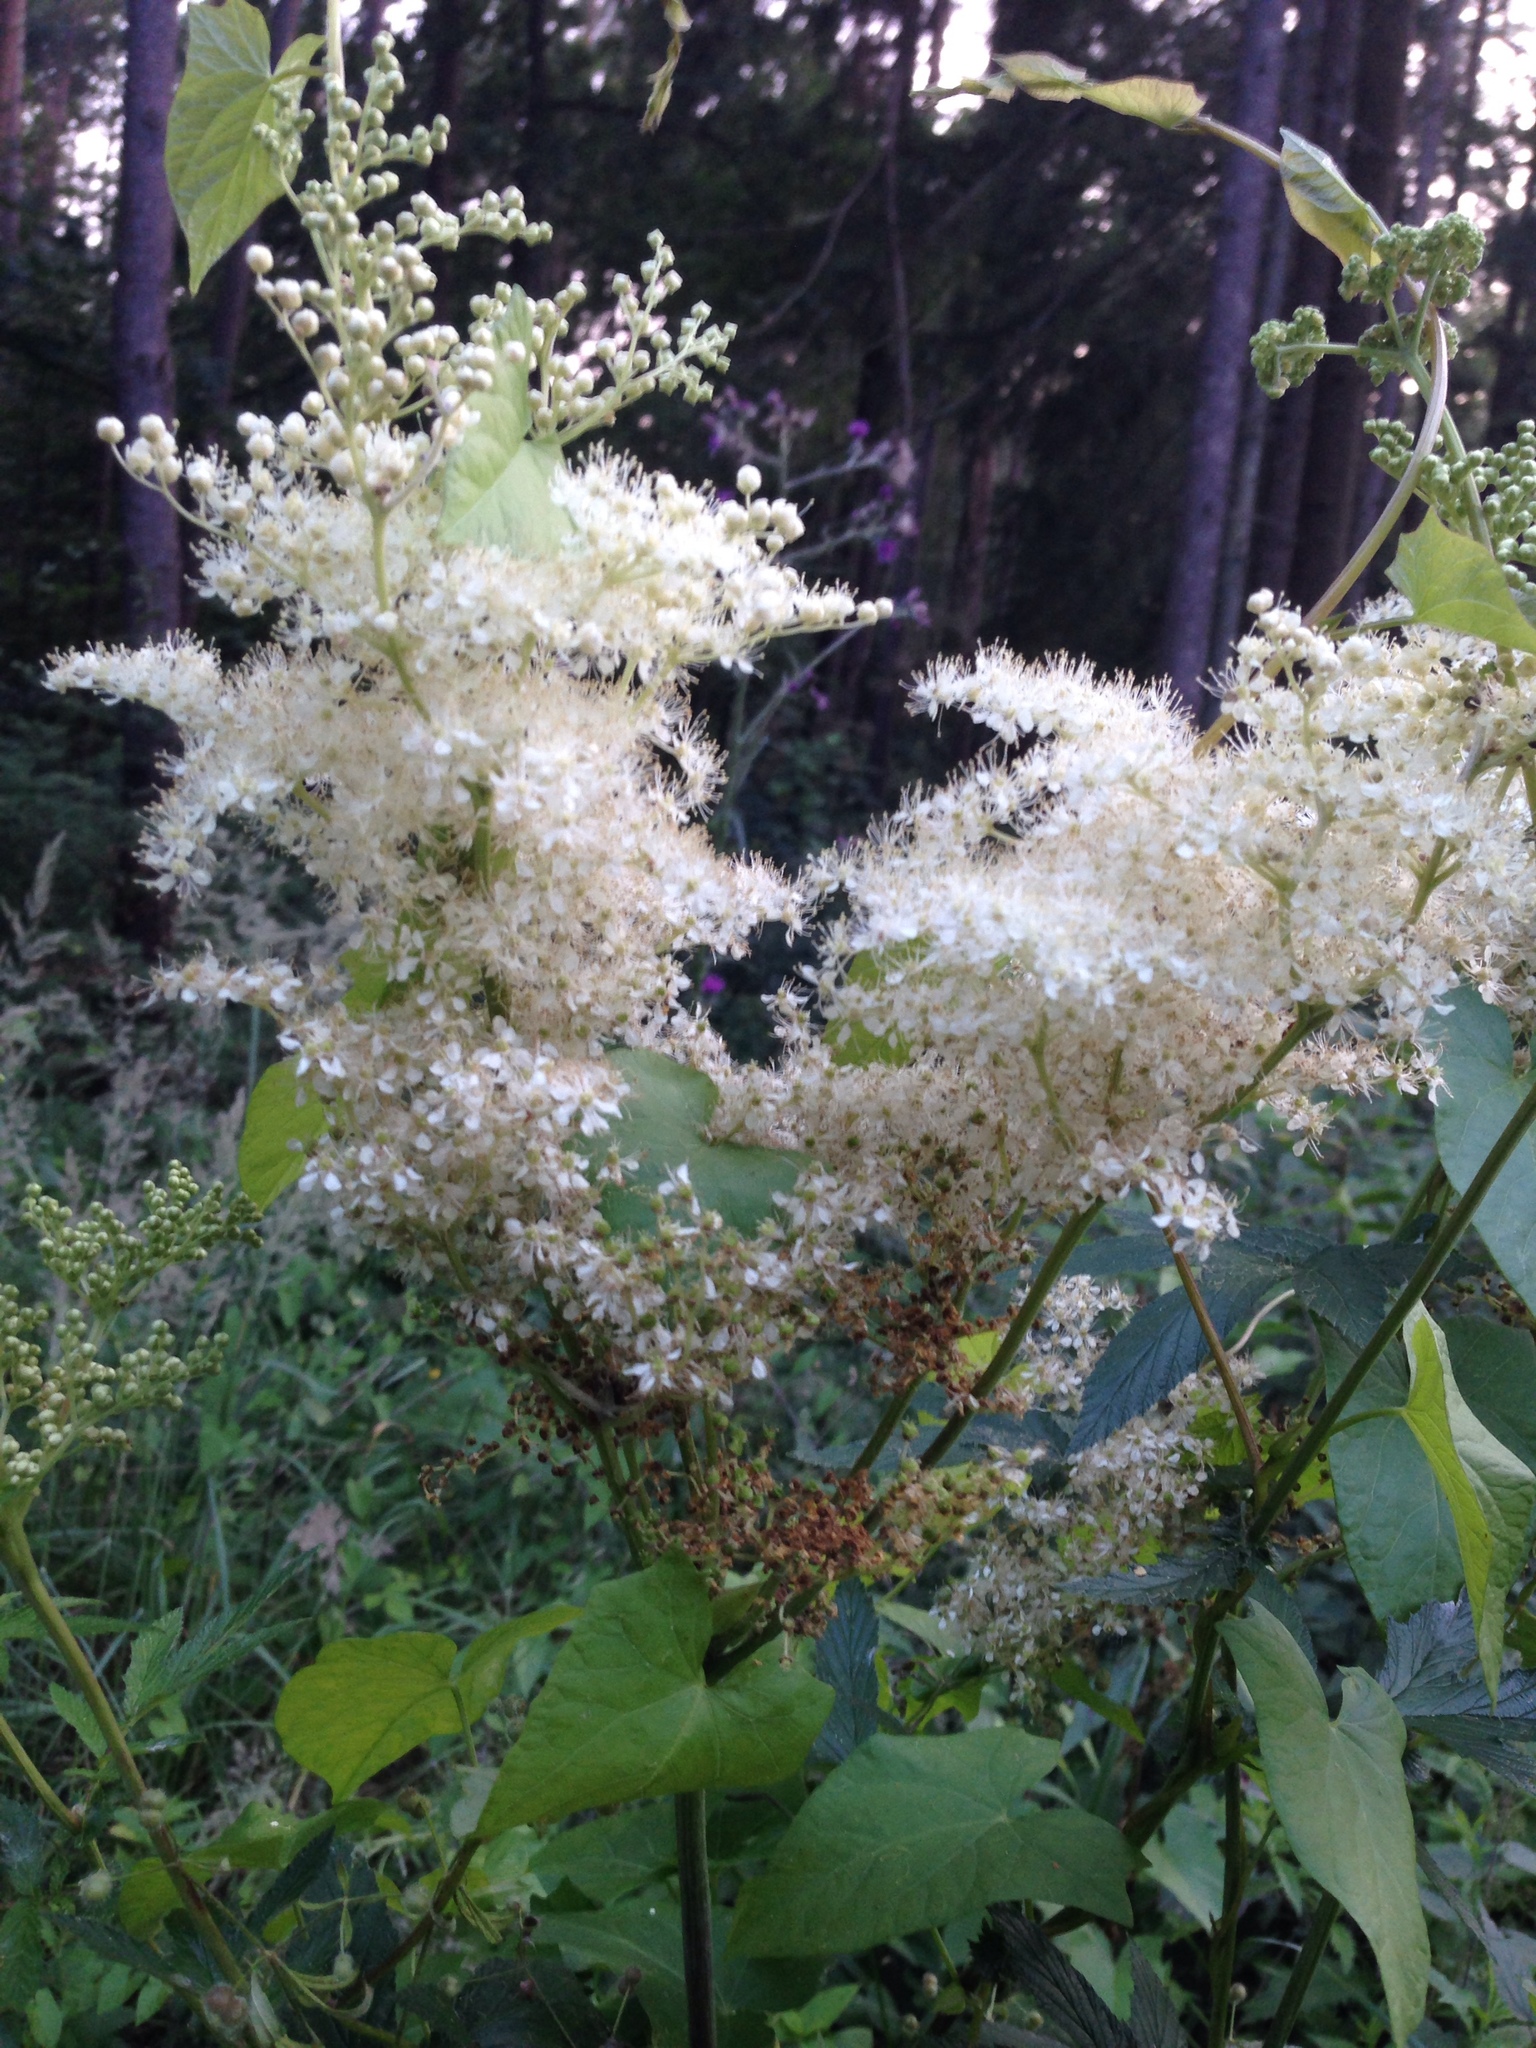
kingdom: Plantae
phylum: Tracheophyta
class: Magnoliopsida
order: Rosales
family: Rosaceae
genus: Filipendula
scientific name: Filipendula ulmaria
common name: Meadowsweet
